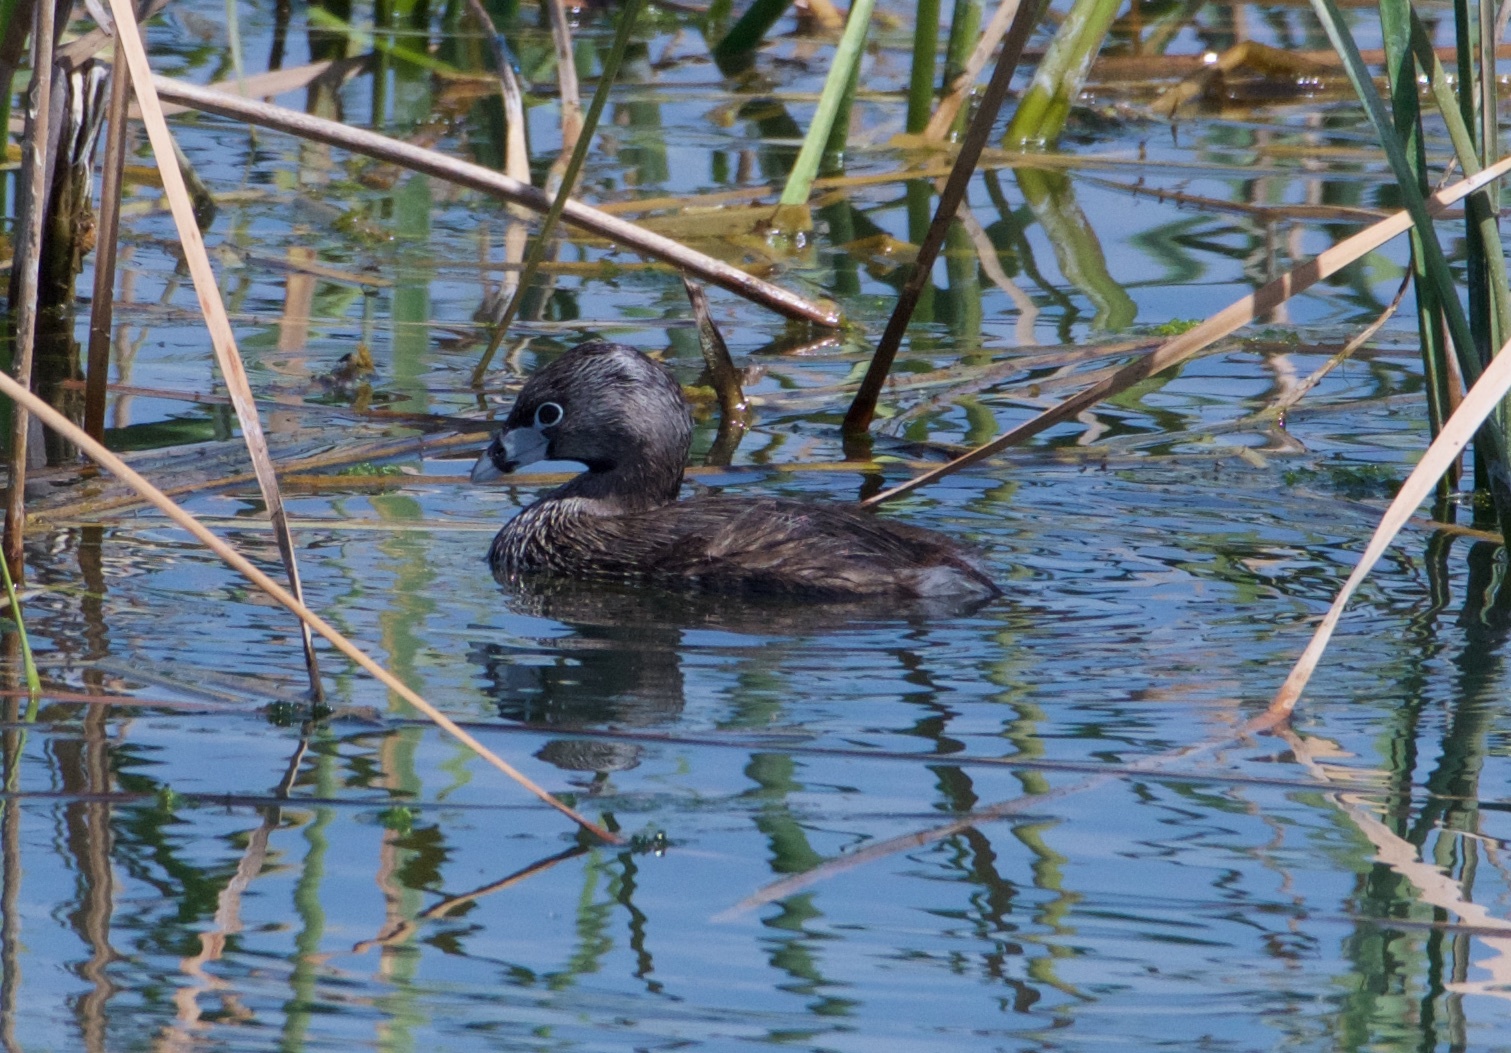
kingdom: Animalia
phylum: Chordata
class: Aves
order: Podicipediformes
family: Podicipedidae
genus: Podilymbus
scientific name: Podilymbus podiceps
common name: Pied-billed grebe
